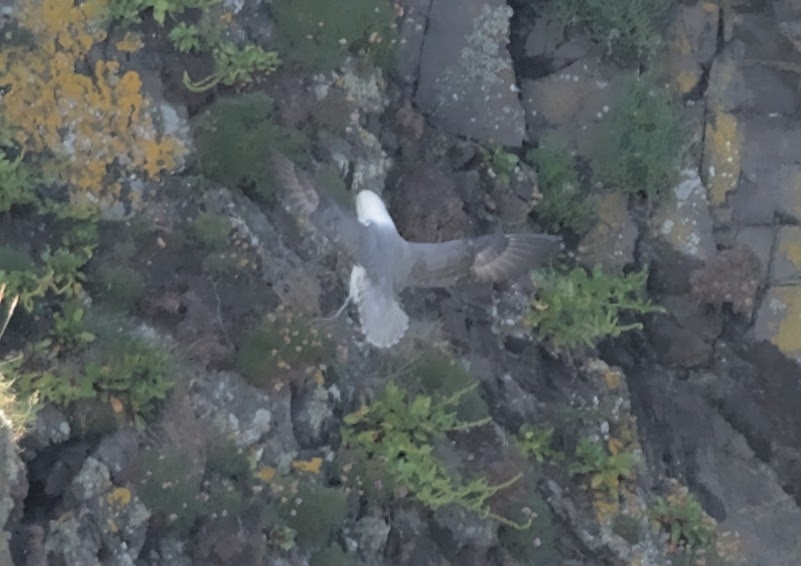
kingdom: Animalia
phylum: Chordata
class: Aves
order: Procellariiformes
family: Procellariidae
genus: Fulmarus
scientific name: Fulmarus glacialis
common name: Northern fulmar
